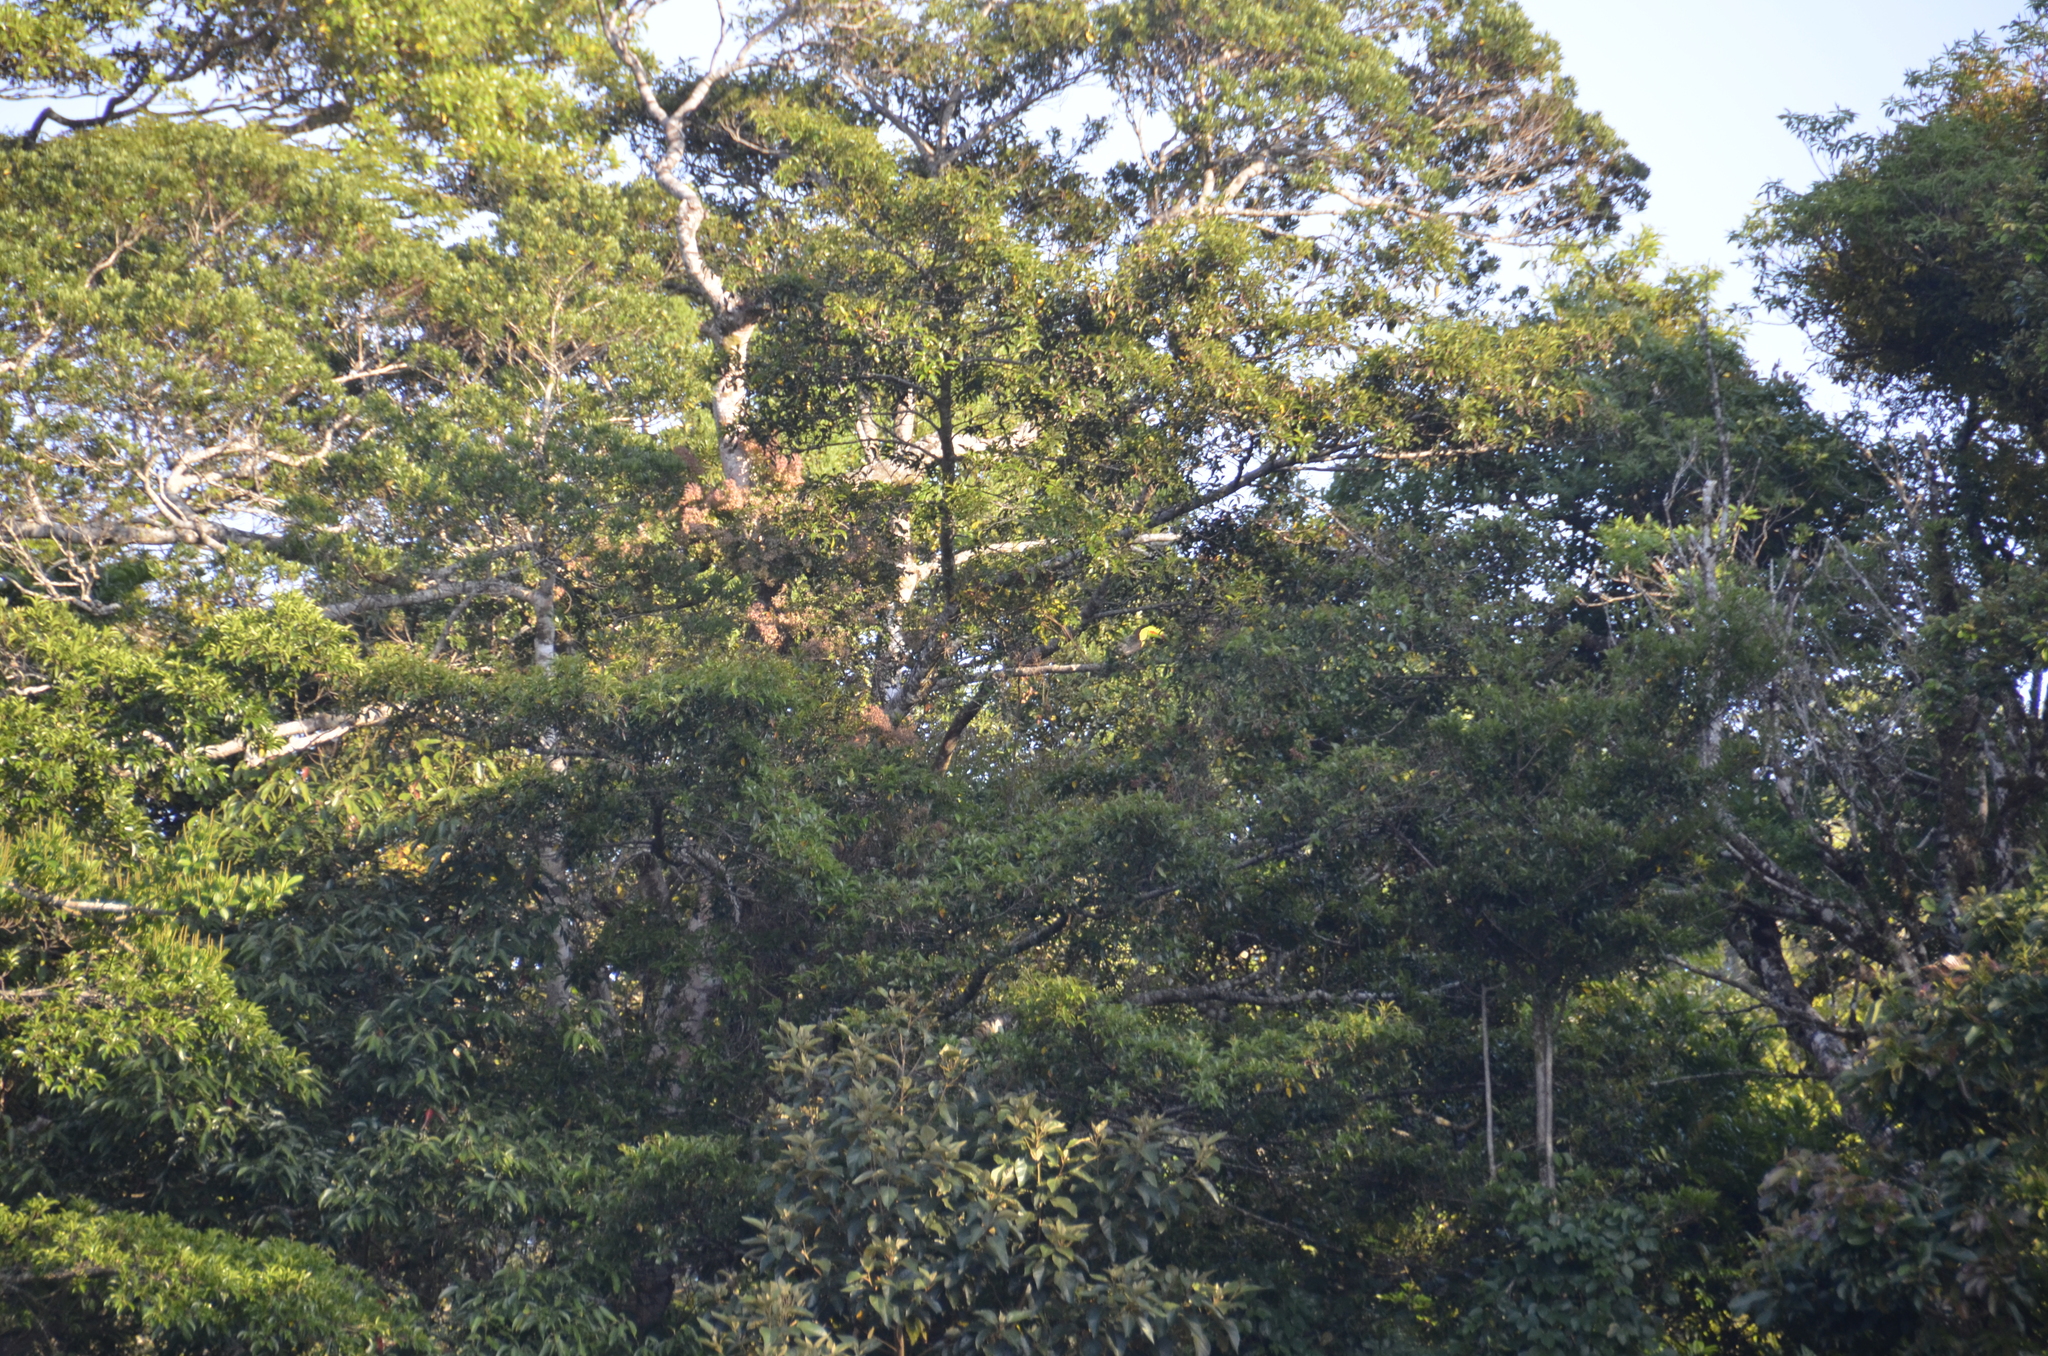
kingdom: Animalia
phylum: Chordata
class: Aves
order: Piciformes
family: Ramphastidae
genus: Ramphastos
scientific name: Ramphastos sulfuratus
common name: Keel-billed toucan
